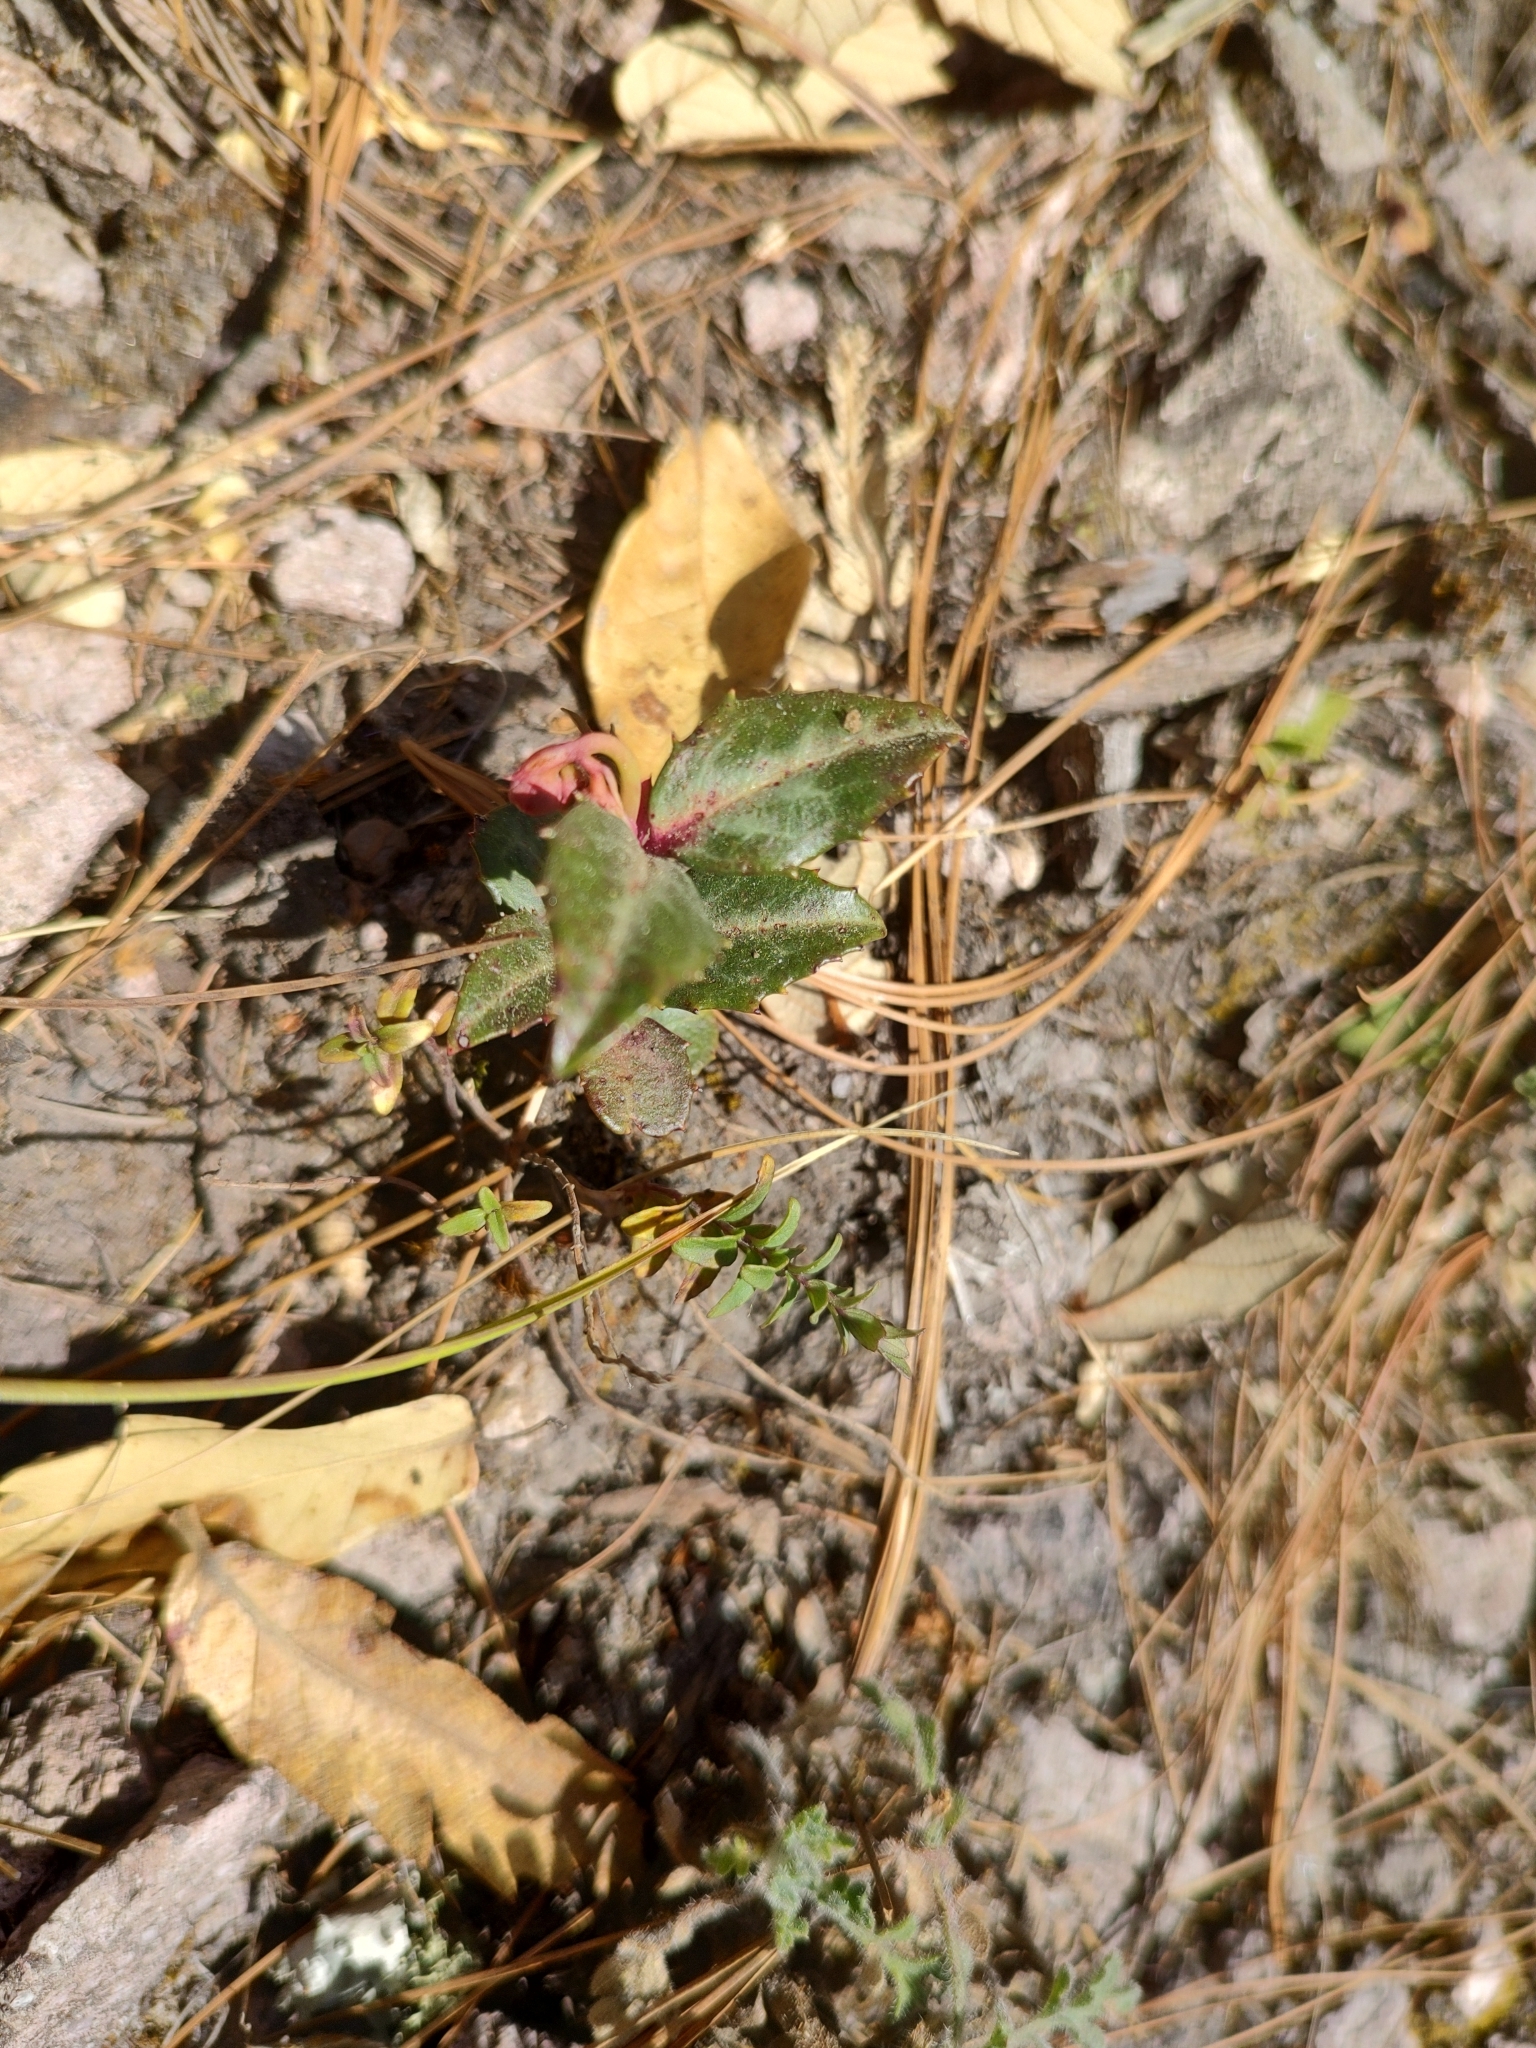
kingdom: Plantae
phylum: Tracheophyta
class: Magnoliopsida
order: Ericales
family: Ericaceae
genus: Chimaphila
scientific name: Chimaphila maculata
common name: Spotted pipsissewa
